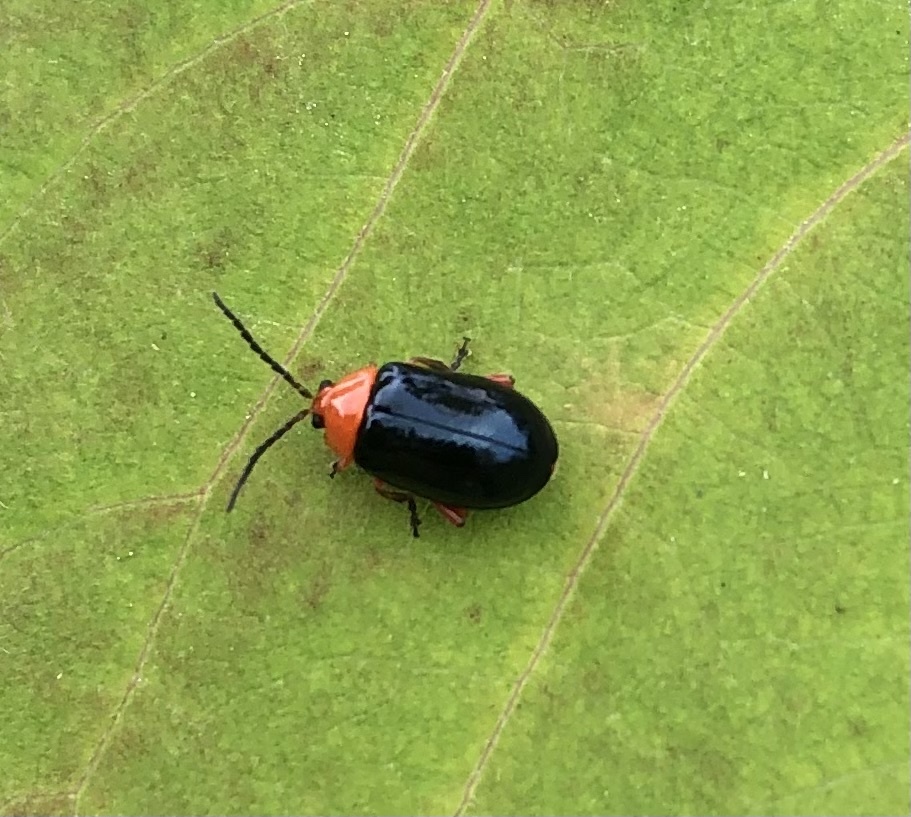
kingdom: Animalia
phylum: Arthropoda
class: Insecta
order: Coleoptera
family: Chrysomelidae
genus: Asphaera
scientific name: Asphaera lustrans
